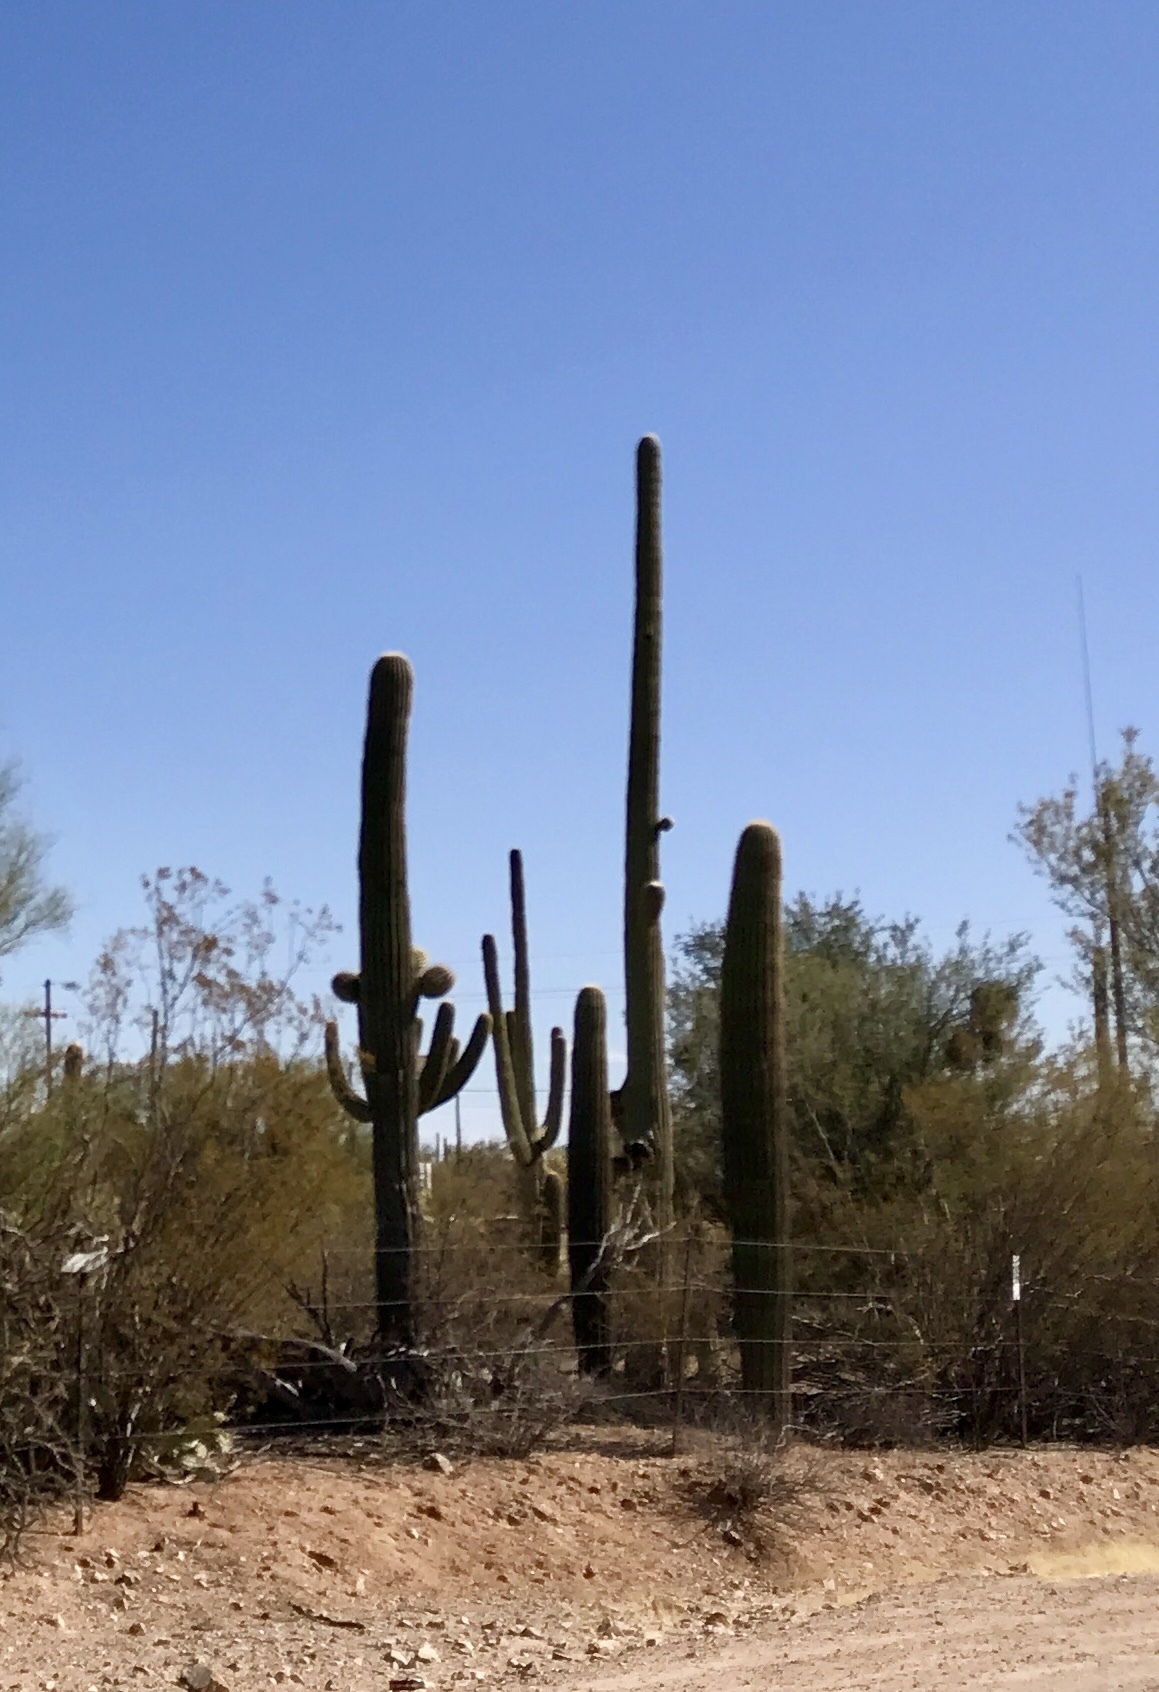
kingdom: Plantae
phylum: Tracheophyta
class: Magnoliopsida
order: Caryophyllales
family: Cactaceae
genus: Carnegiea
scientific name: Carnegiea gigantea
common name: Saguaro
